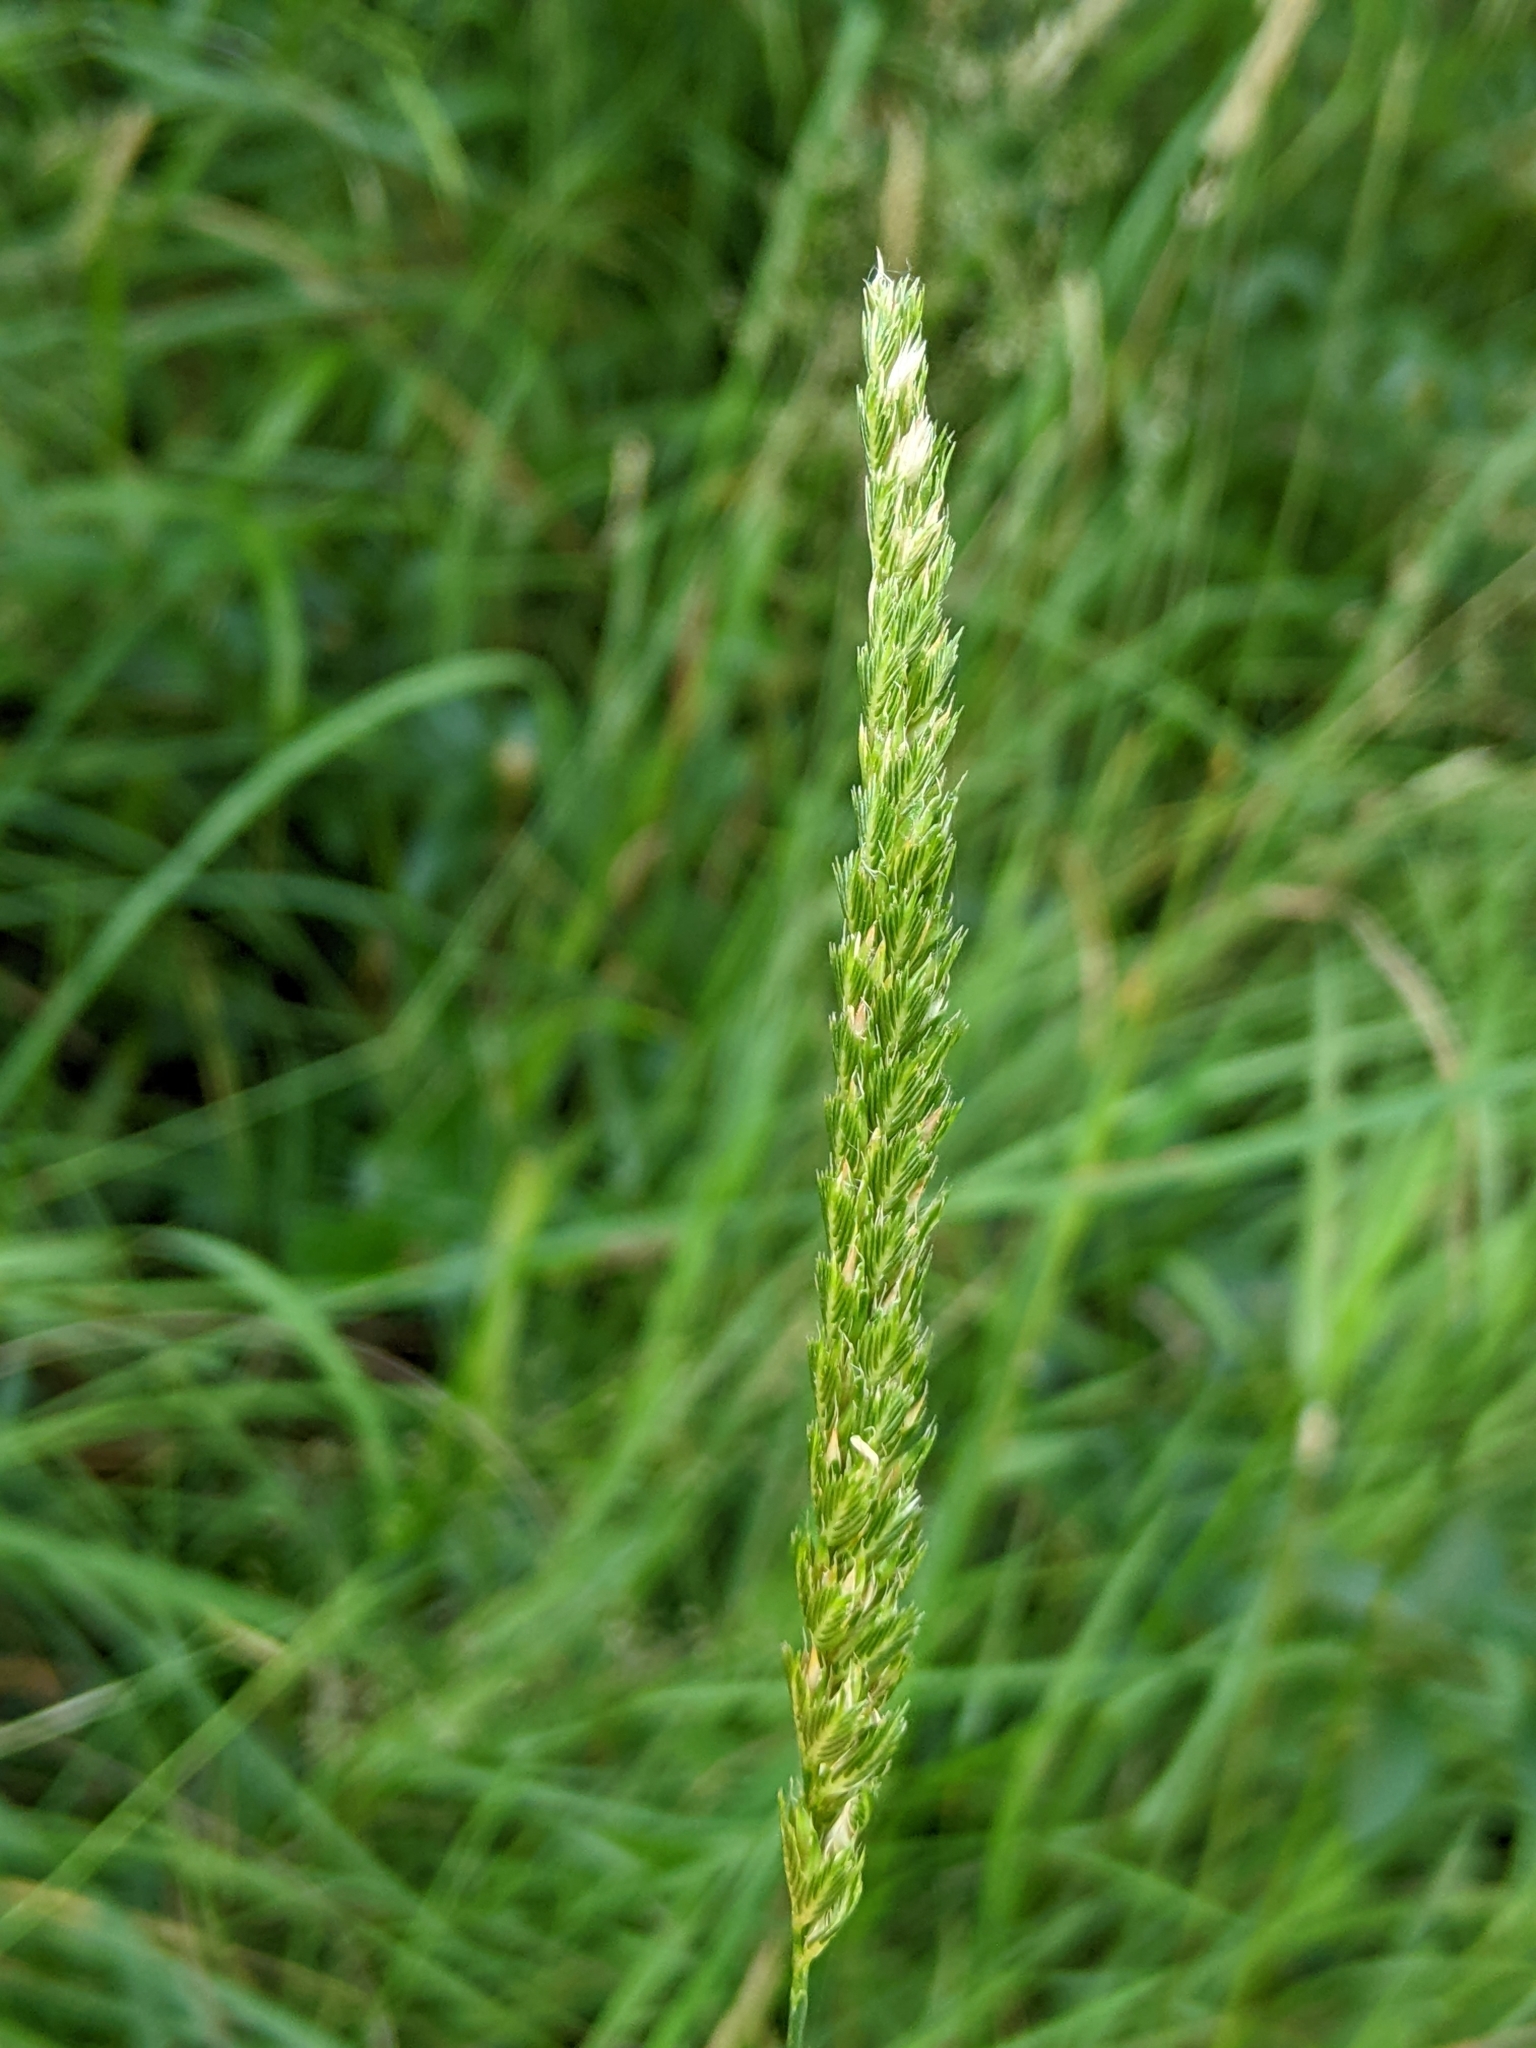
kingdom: Plantae
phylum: Tracheophyta
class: Liliopsida
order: Poales
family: Poaceae
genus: Cynosurus
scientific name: Cynosurus cristatus
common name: Crested dog's-tail
